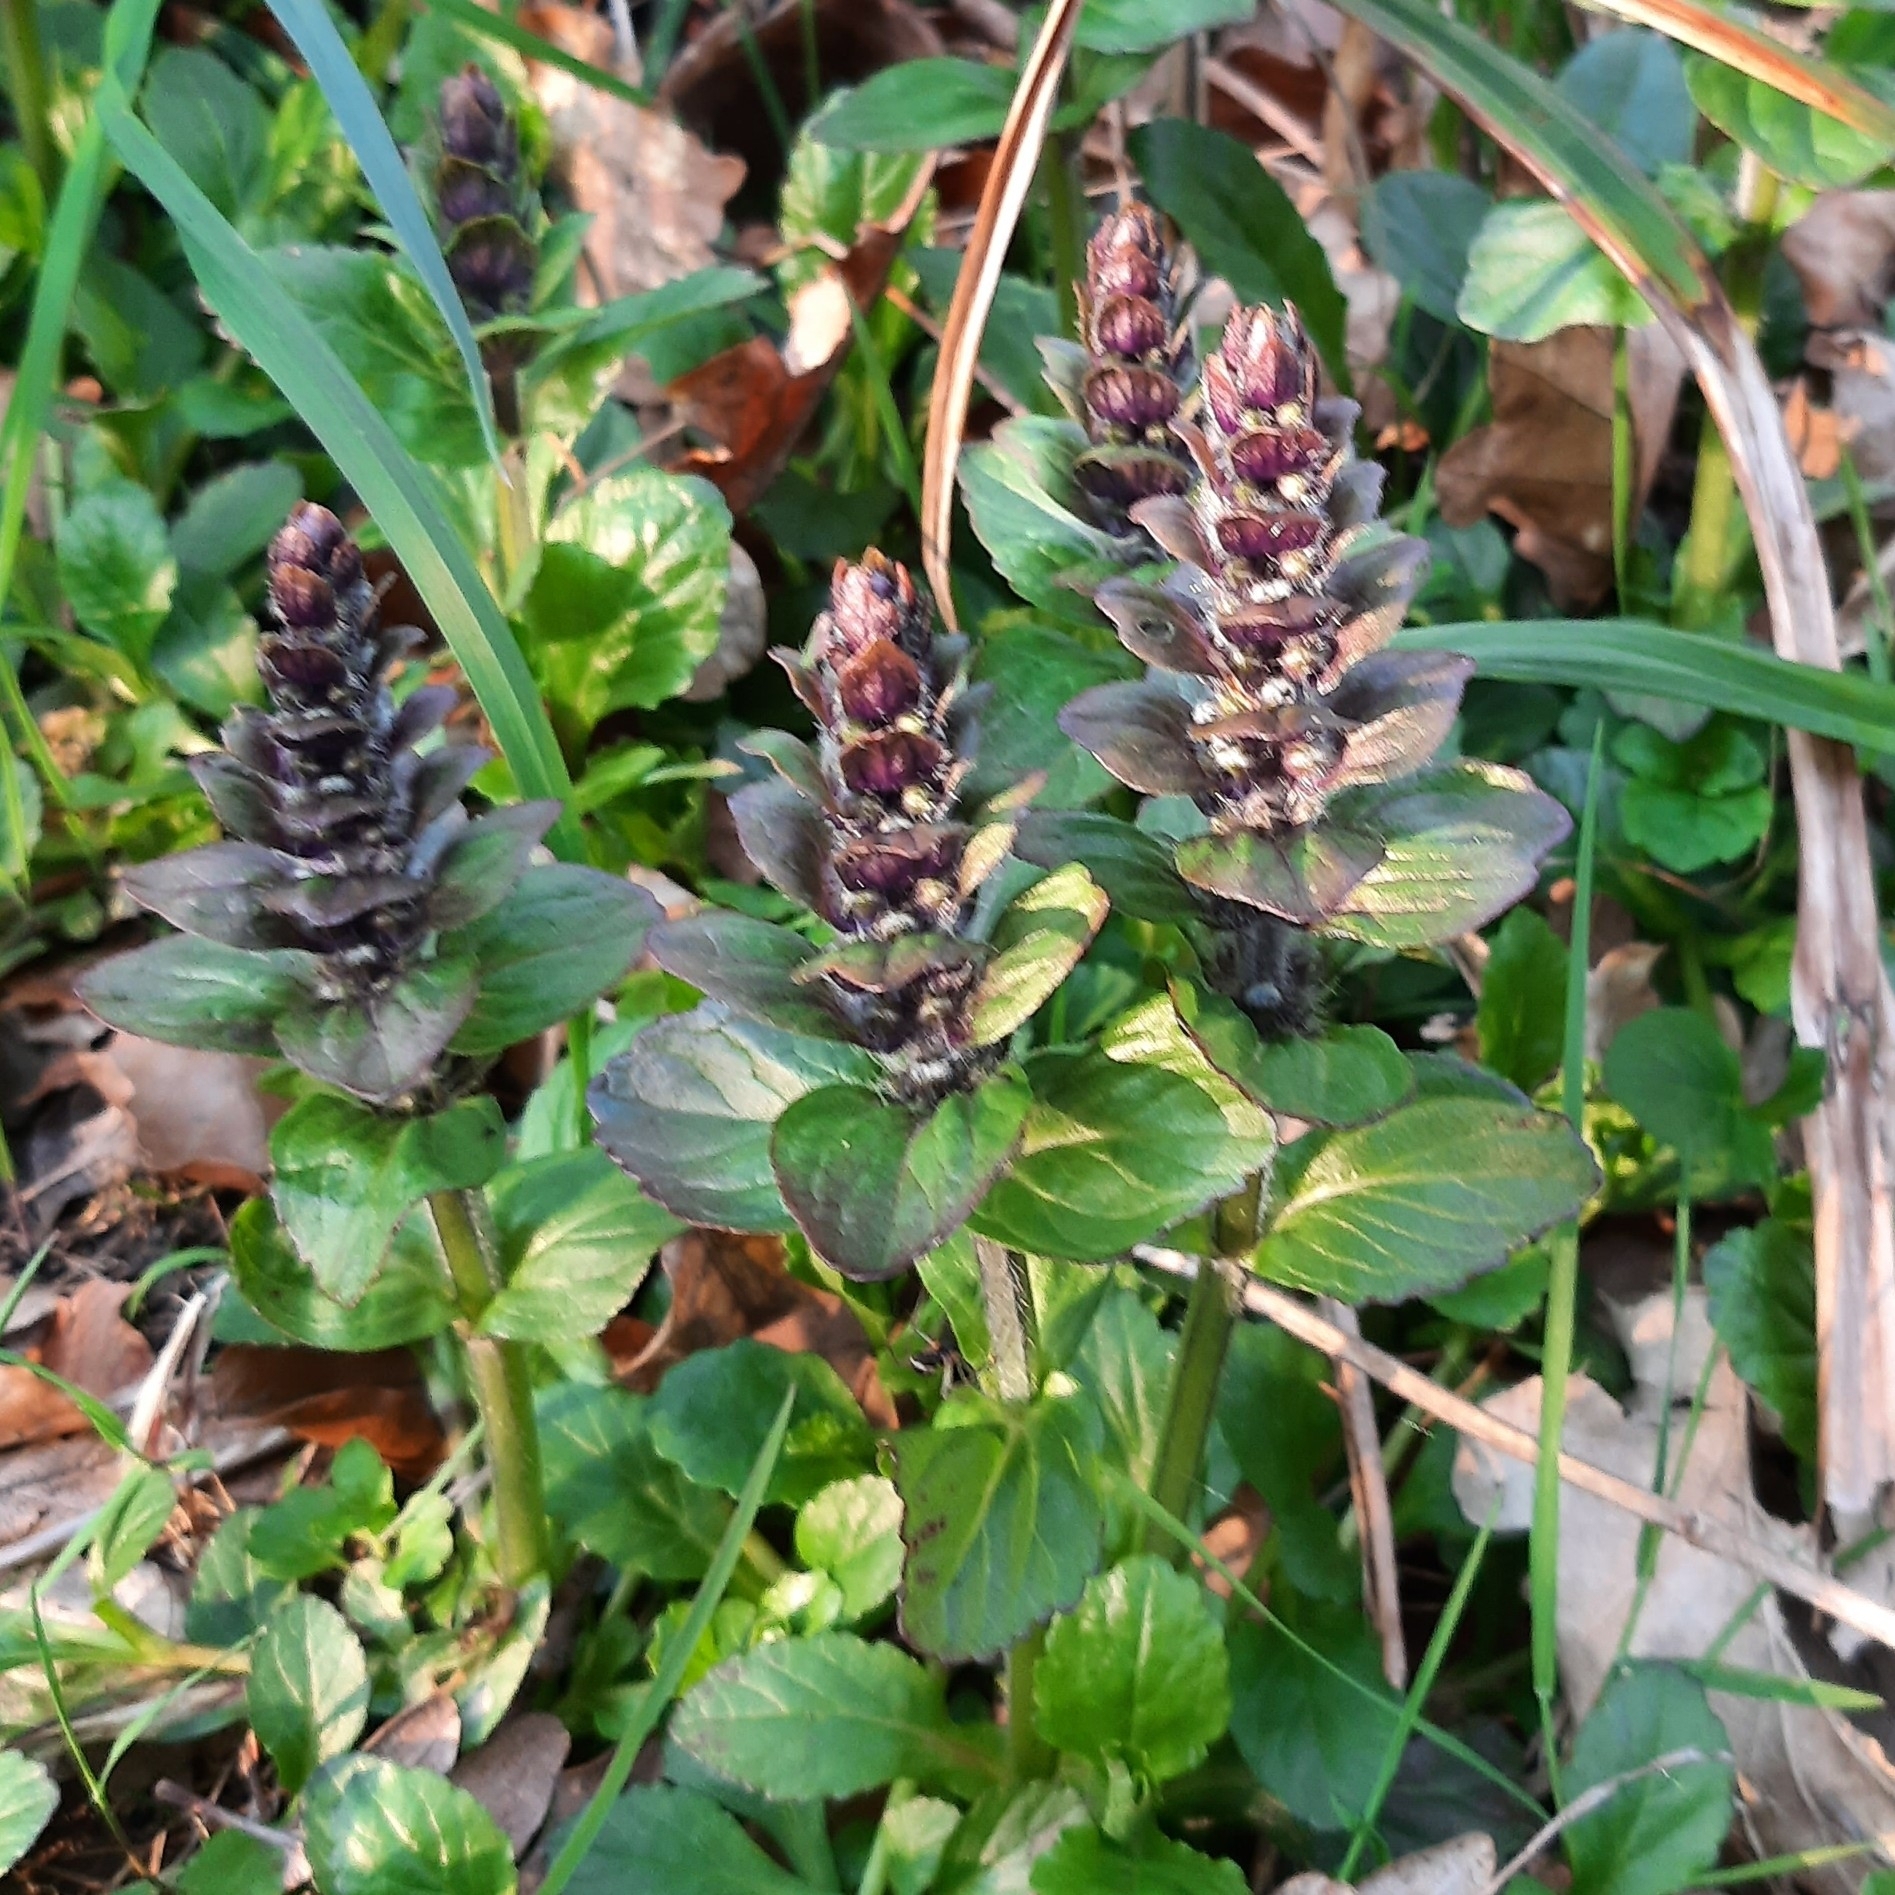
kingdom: Plantae
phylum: Tracheophyta
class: Magnoliopsida
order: Lamiales
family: Lamiaceae
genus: Ajuga
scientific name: Ajuga reptans
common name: Bugle
